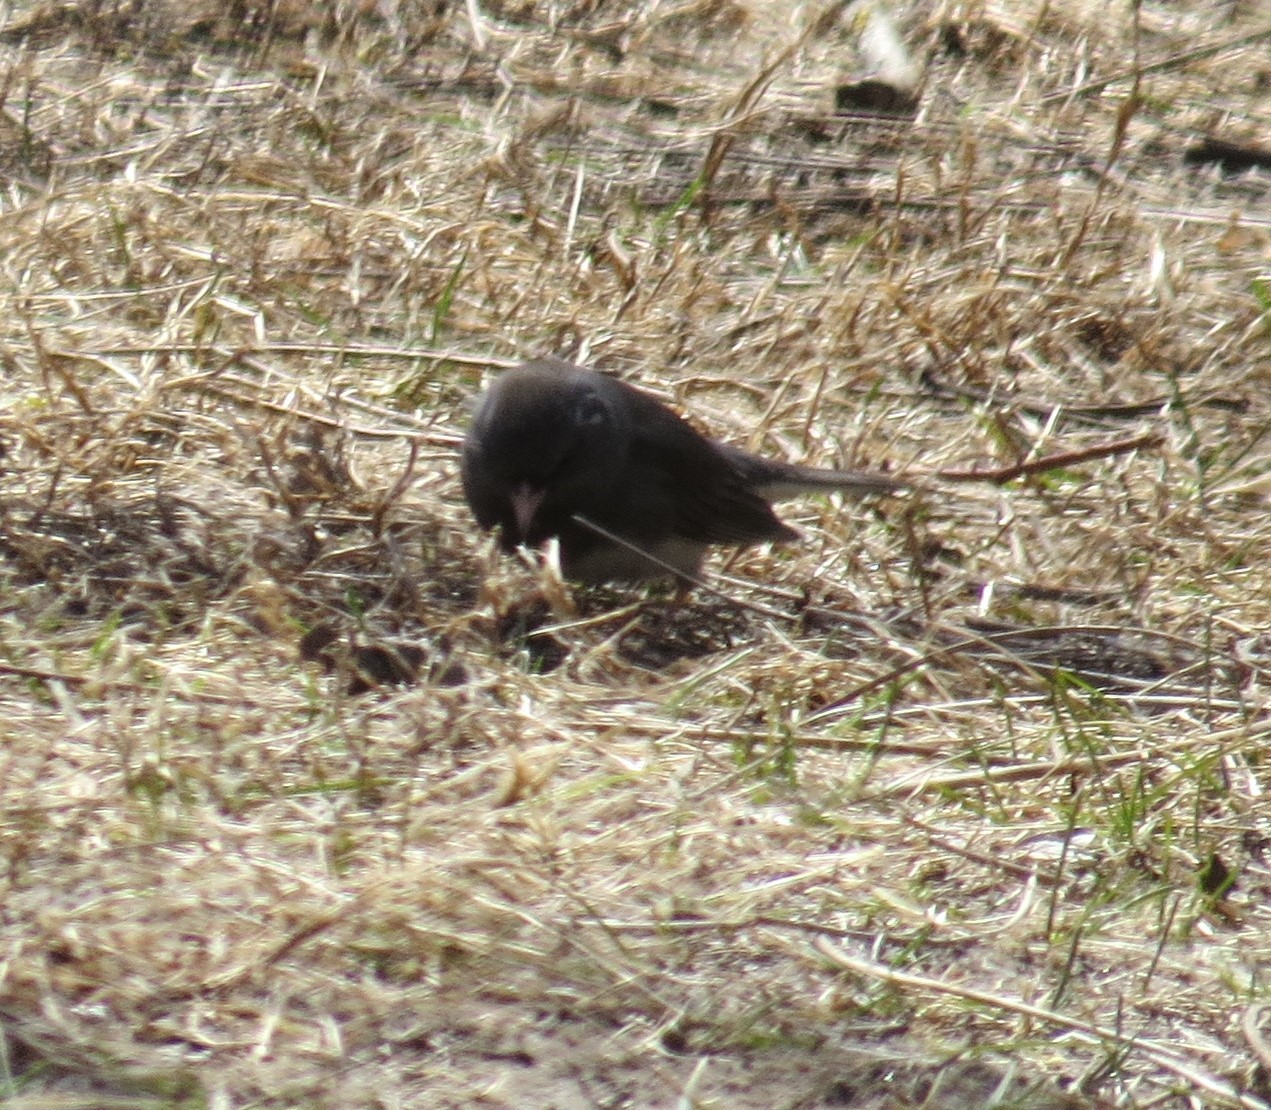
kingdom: Animalia
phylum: Chordata
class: Aves
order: Passeriformes
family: Passerellidae
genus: Junco
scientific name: Junco hyemalis
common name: Dark-eyed junco
